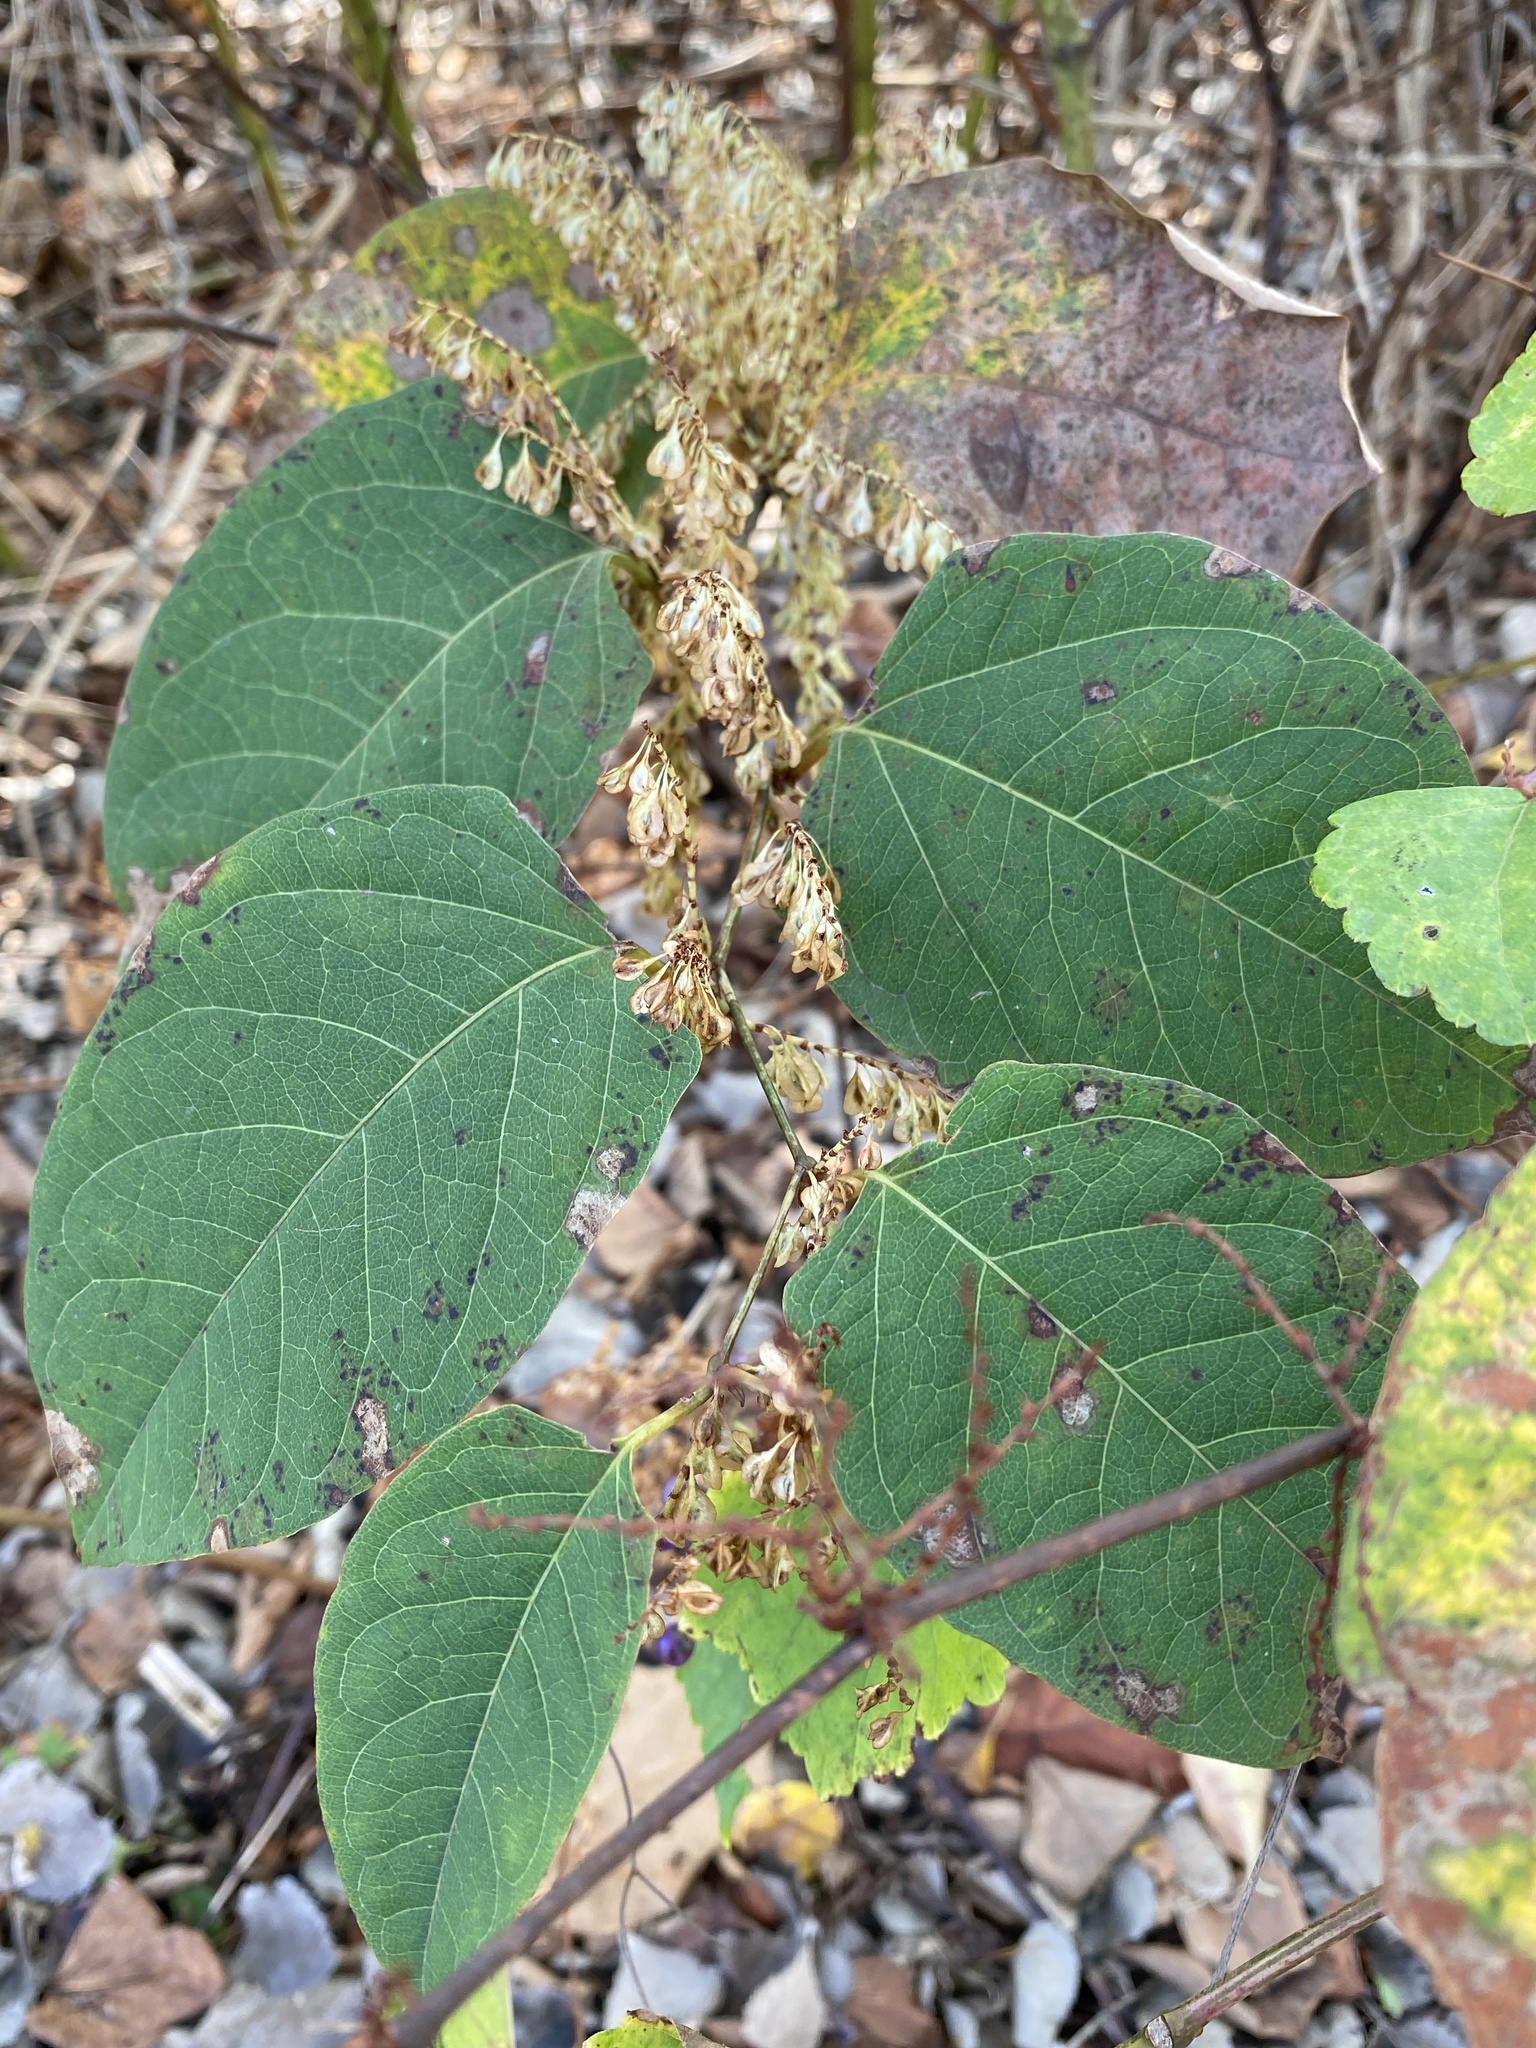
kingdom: Plantae
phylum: Tracheophyta
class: Magnoliopsida
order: Caryophyllales
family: Polygonaceae
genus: Reynoutria
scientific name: Reynoutria japonica
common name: Japanese knotweed
